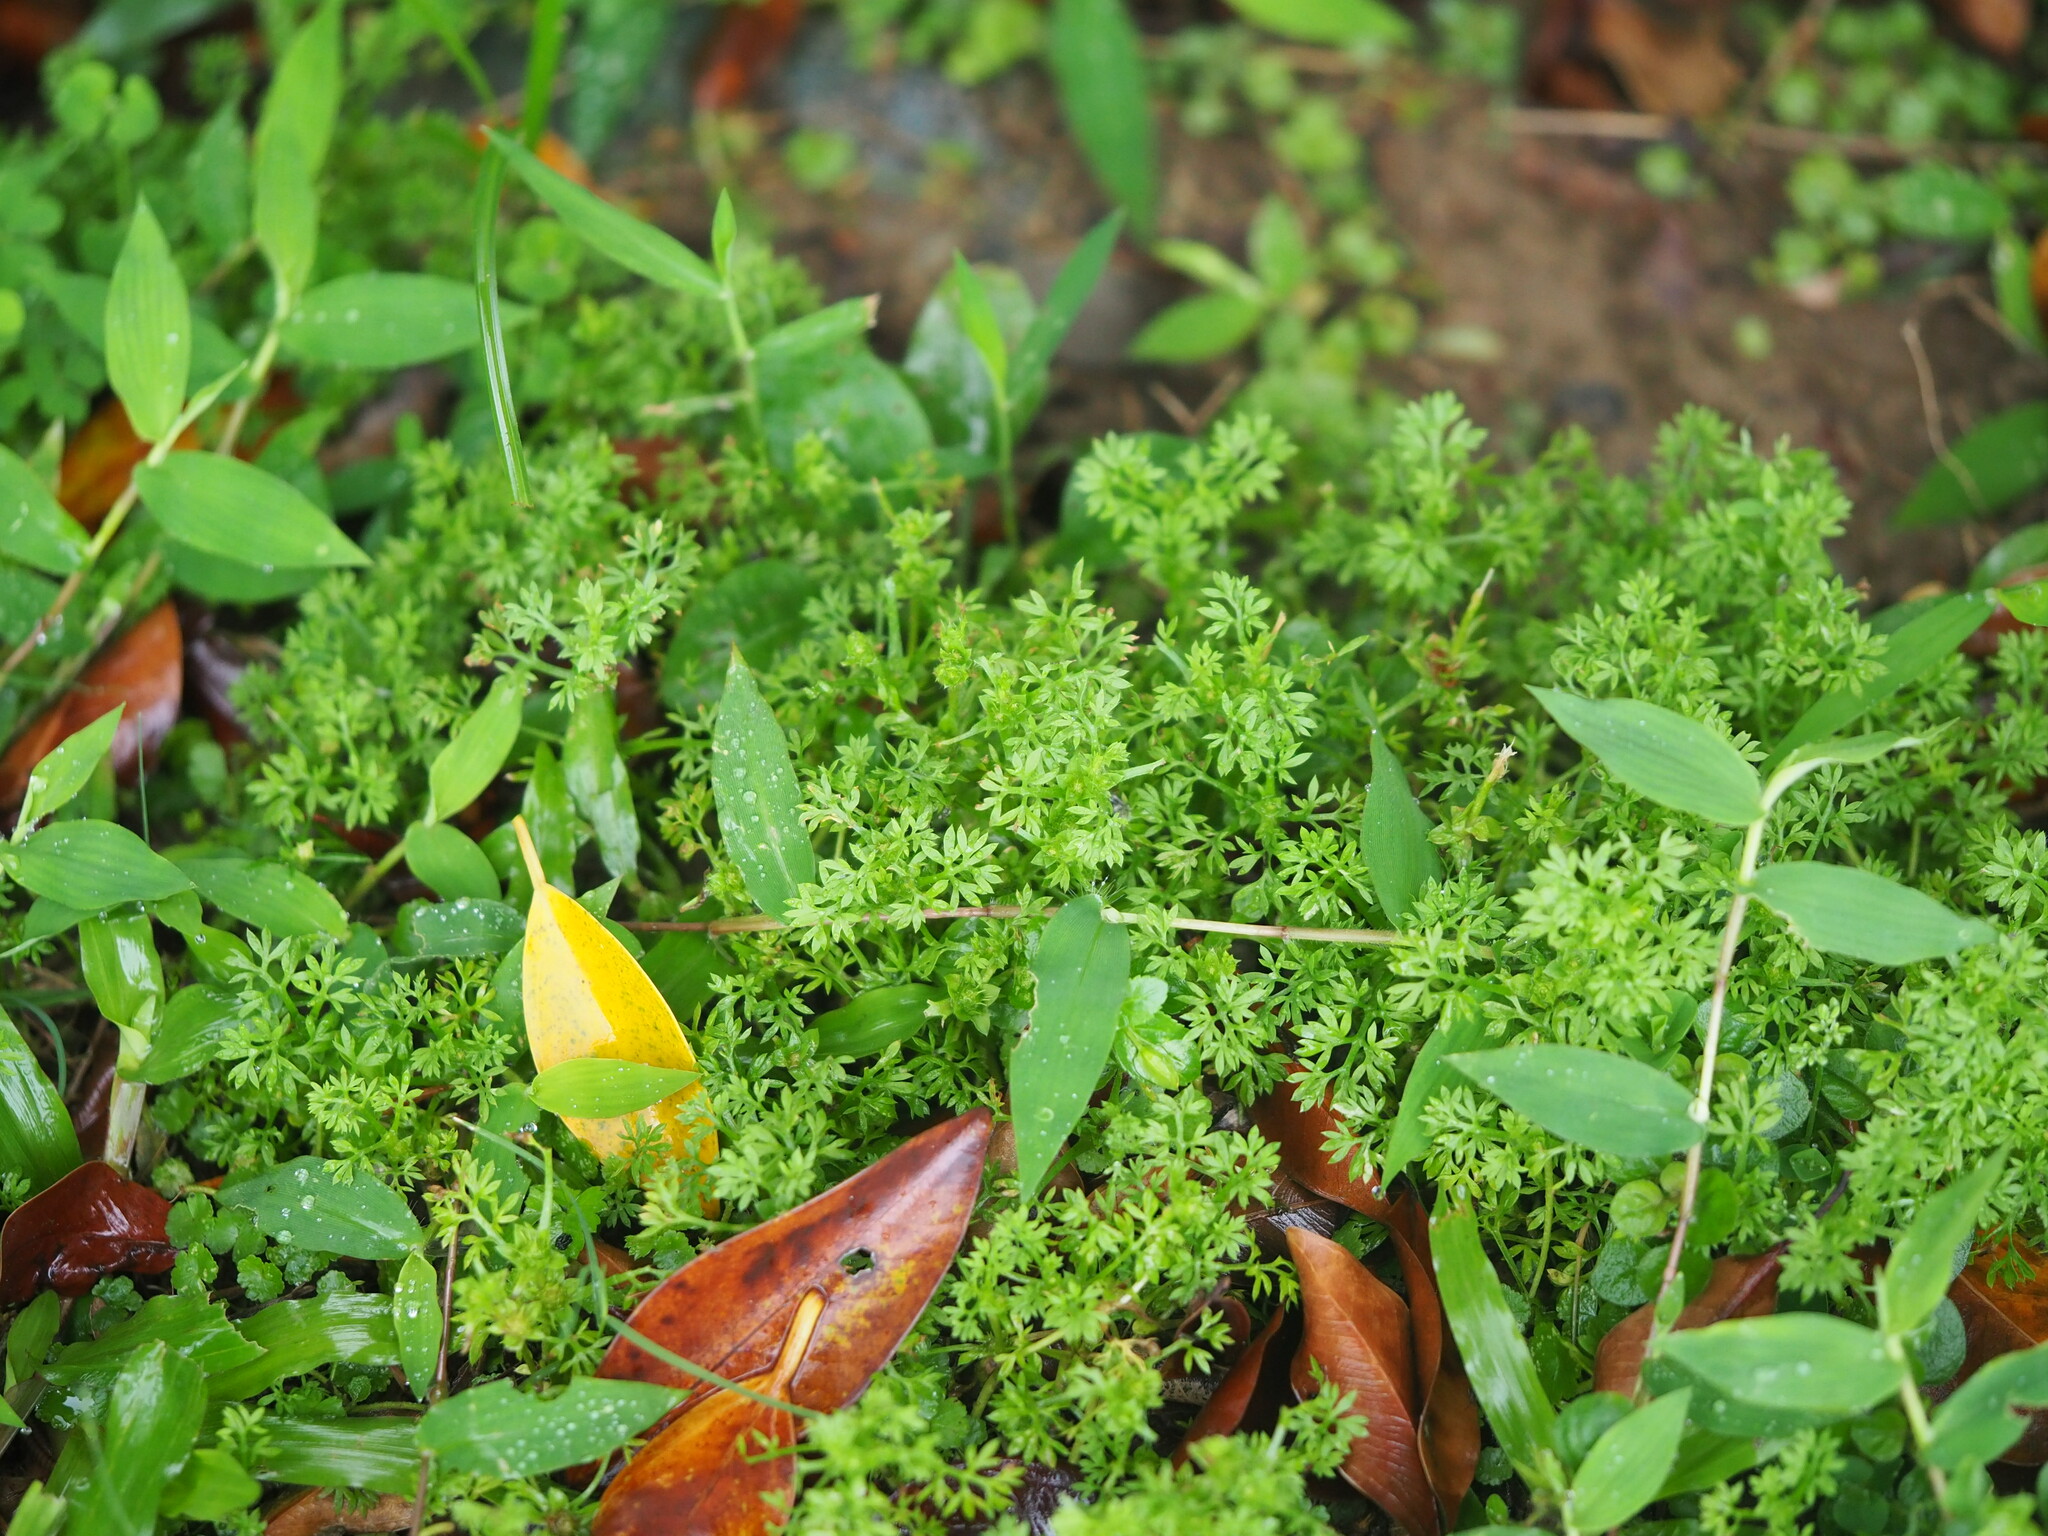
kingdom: Plantae
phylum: Tracheophyta
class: Magnoliopsida
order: Asterales
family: Asteraceae
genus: Soliva
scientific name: Soliva sessilis
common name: Field burrweed
